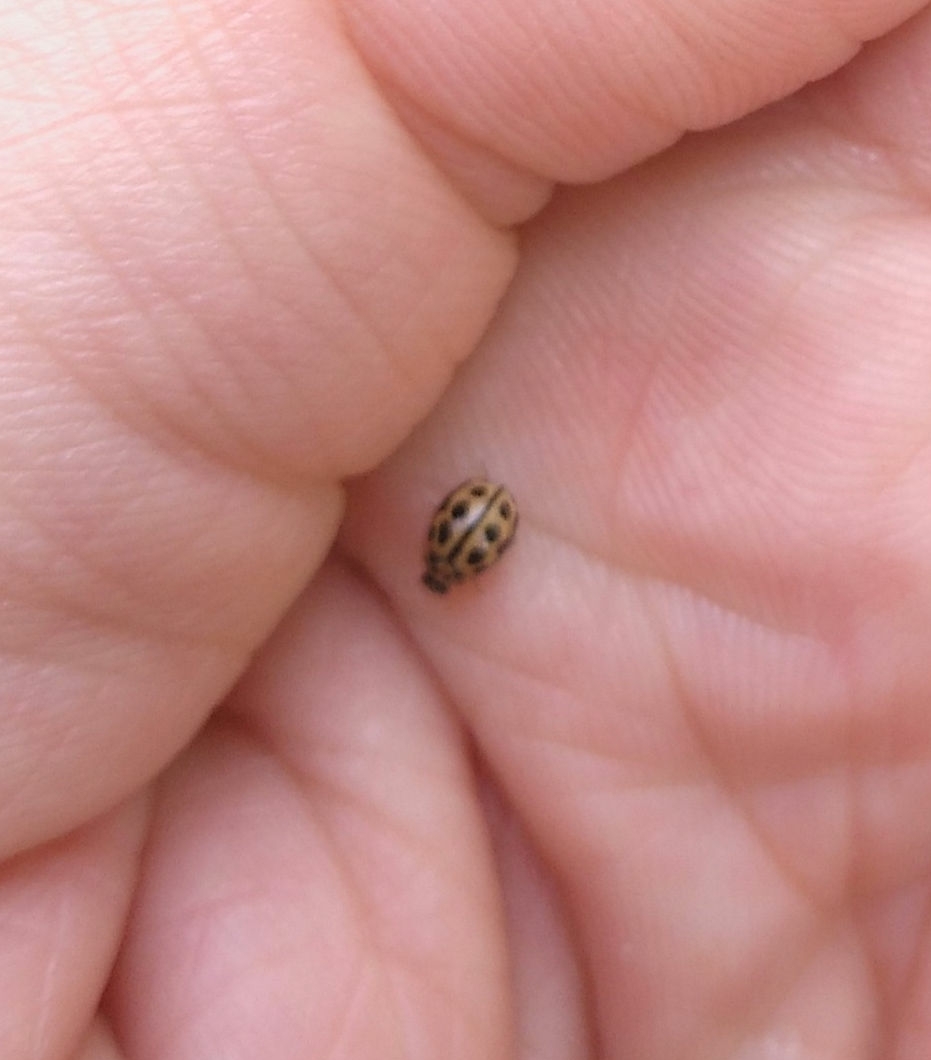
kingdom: Animalia
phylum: Arthropoda
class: Insecta
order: Coleoptera
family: Coccinellidae
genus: Tytthaspis
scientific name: Tytthaspis sedecimpunctata
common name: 16-spot ladybird
